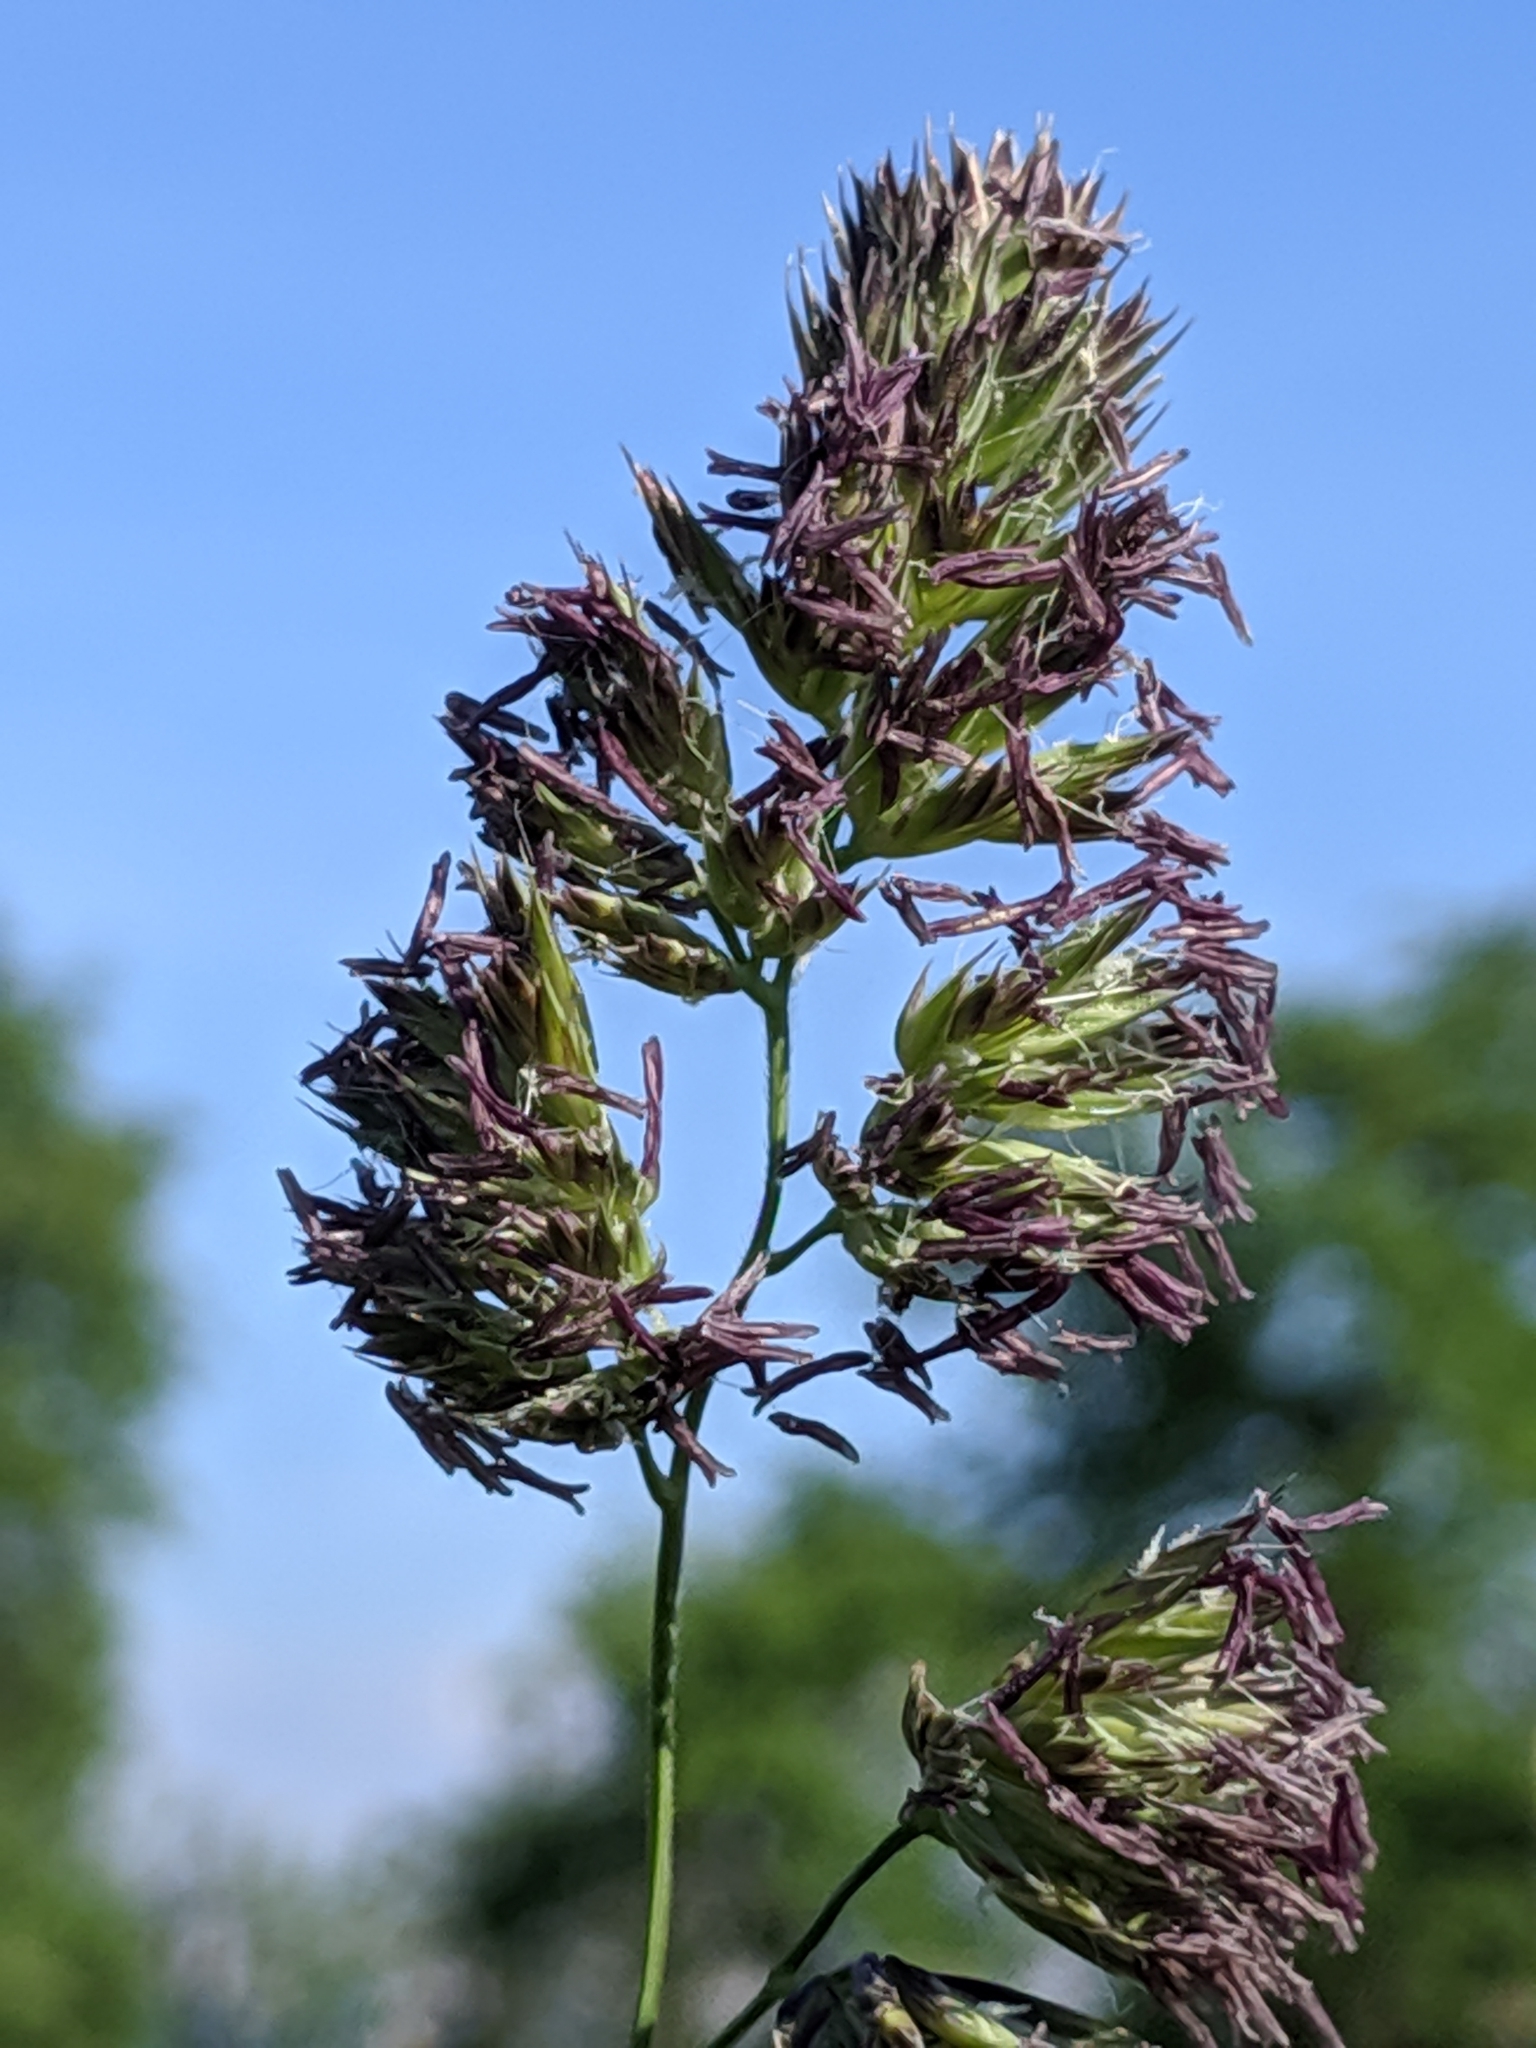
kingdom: Plantae
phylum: Tracheophyta
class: Liliopsida
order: Poales
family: Poaceae
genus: Dactylis
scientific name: Dactylis glomerata
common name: Orchardgrass
